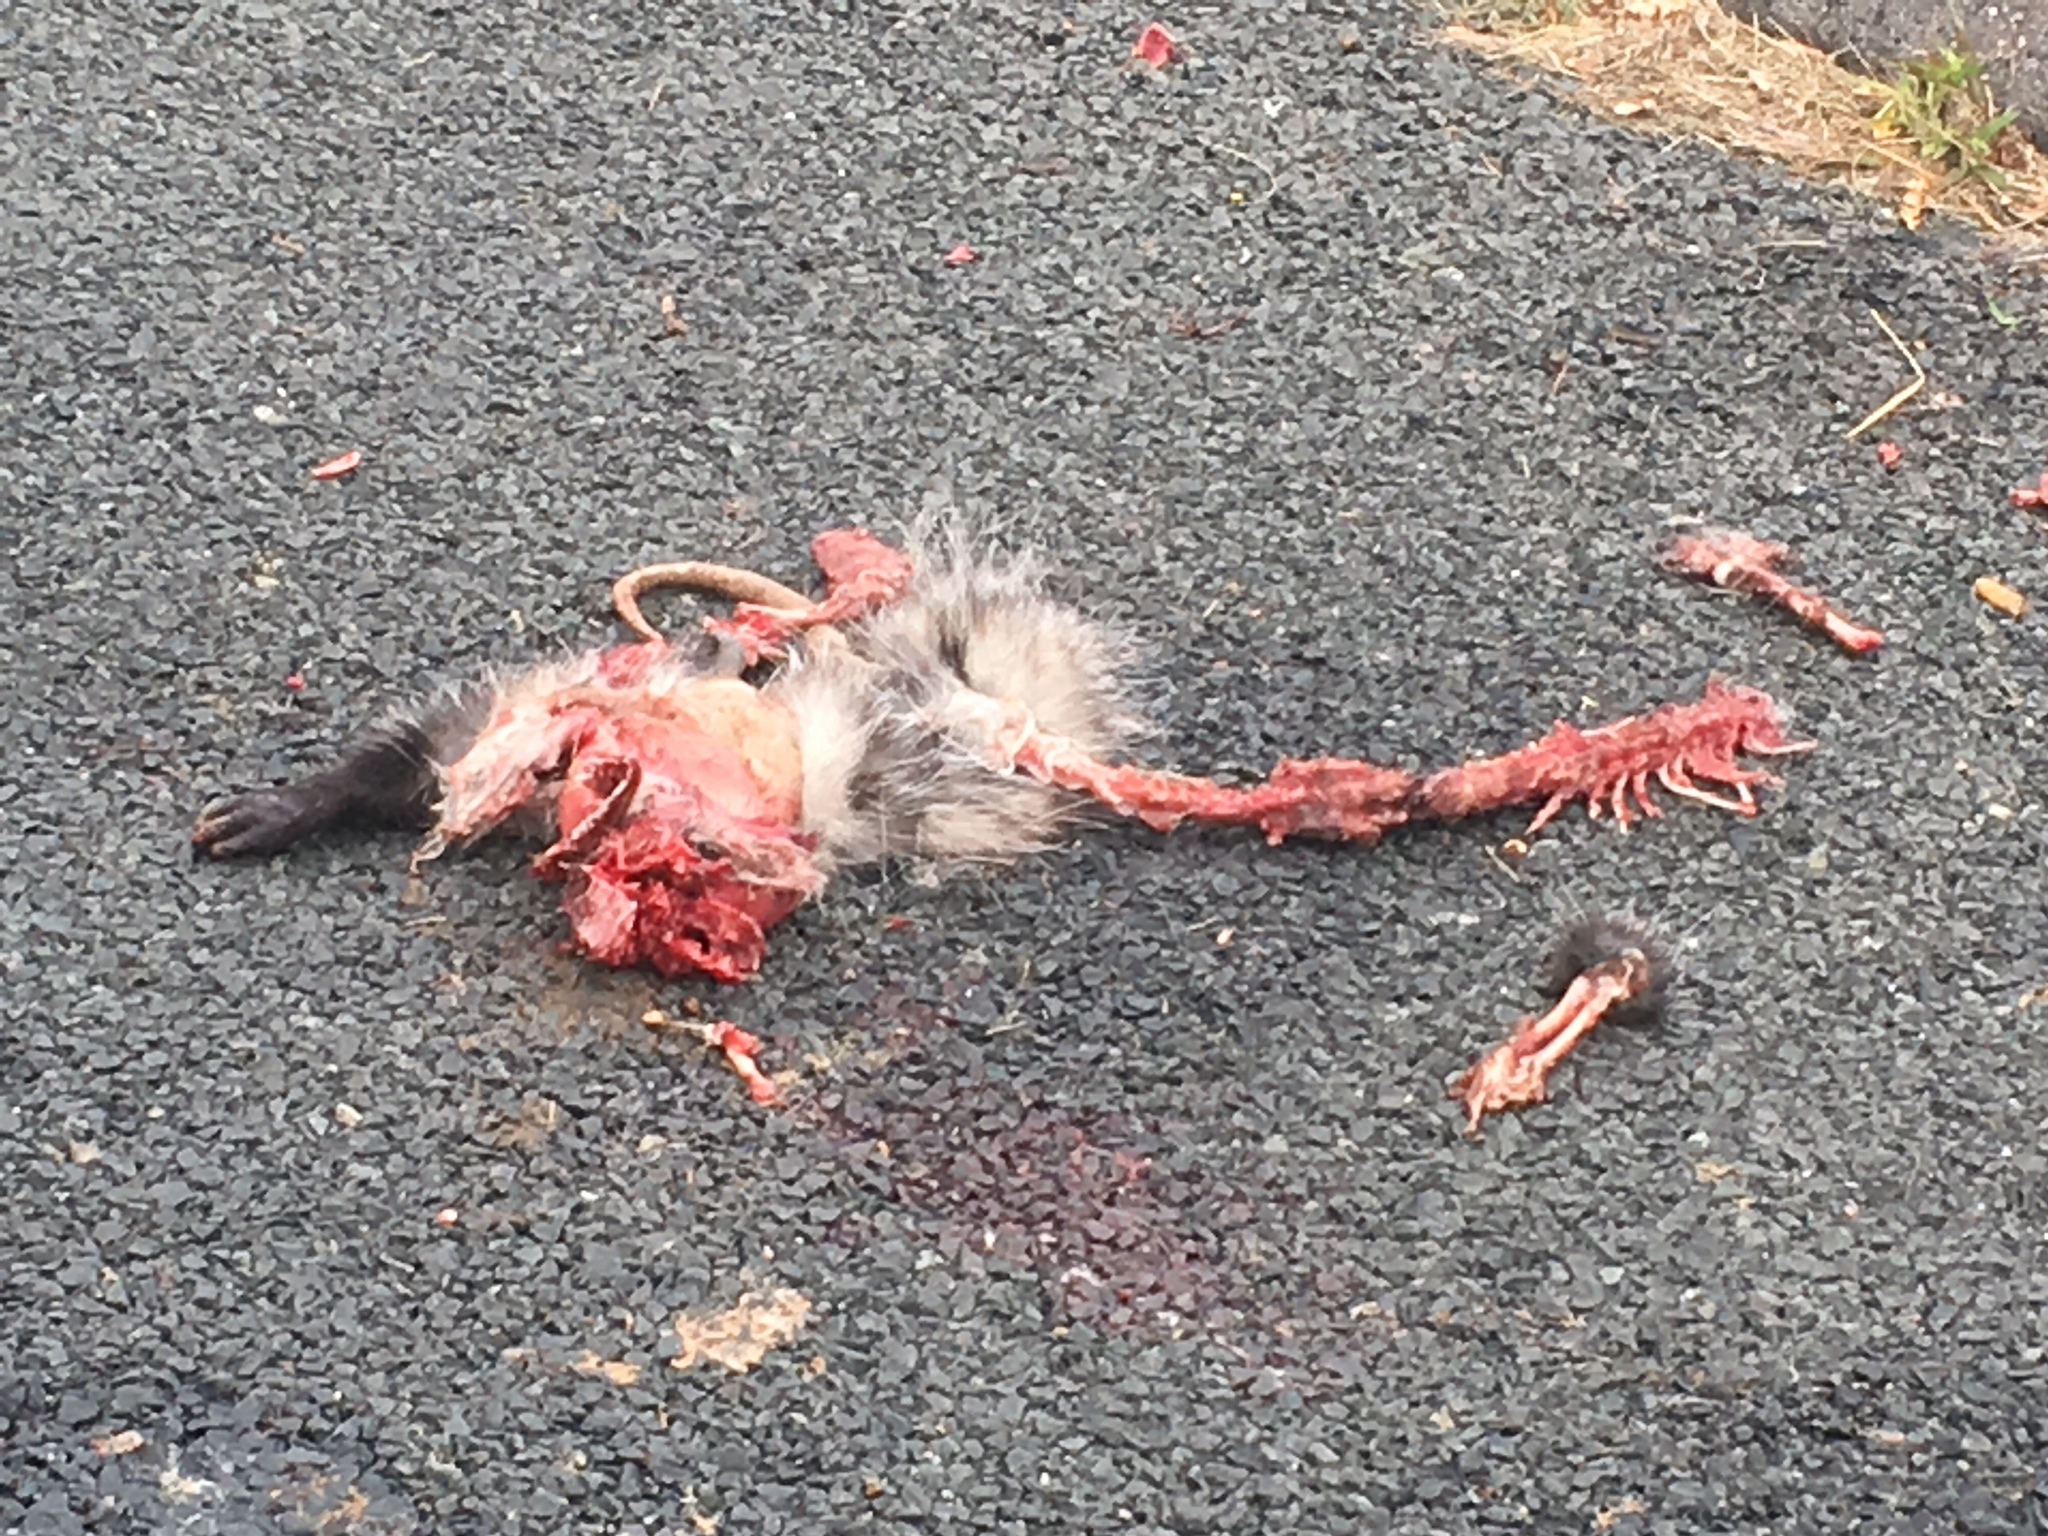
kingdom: Animalia
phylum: Chordata
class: Mammalia
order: Didelphimorphia
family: Didelphidae
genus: Didelphis
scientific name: Didelphis virginiana
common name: Virginia opossum
